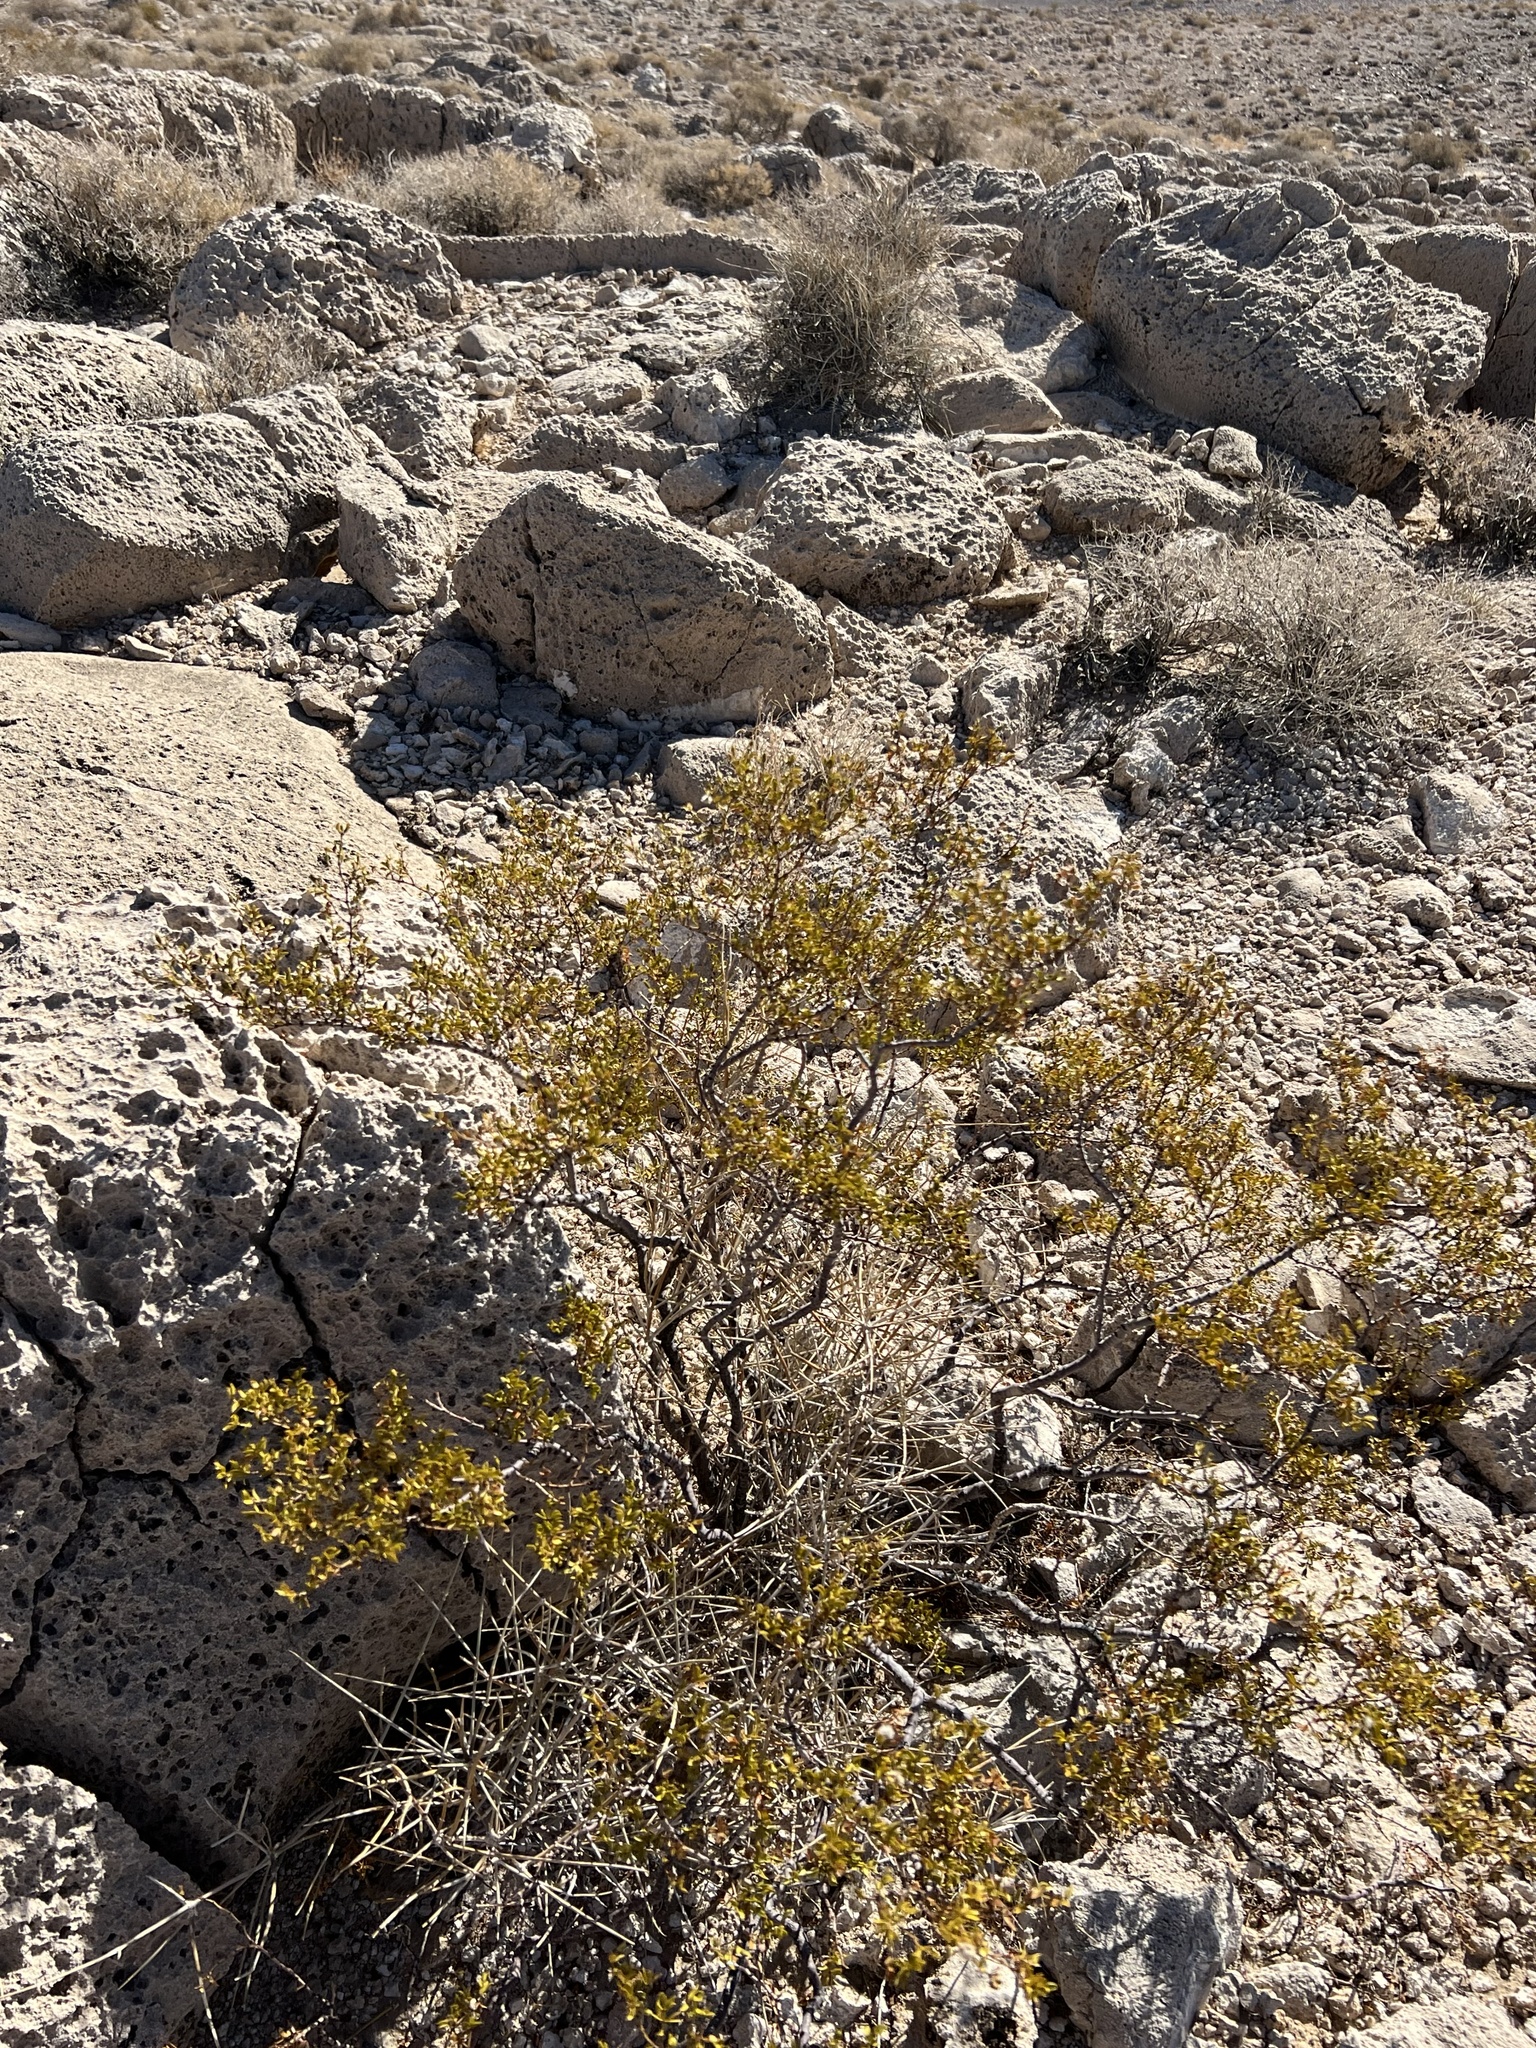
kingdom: Plantae
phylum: Tracheophyta
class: Magnoliopsida
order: Zygophyllales
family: Zygophyllaceae
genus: Larrea
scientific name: Larrea tridentata
